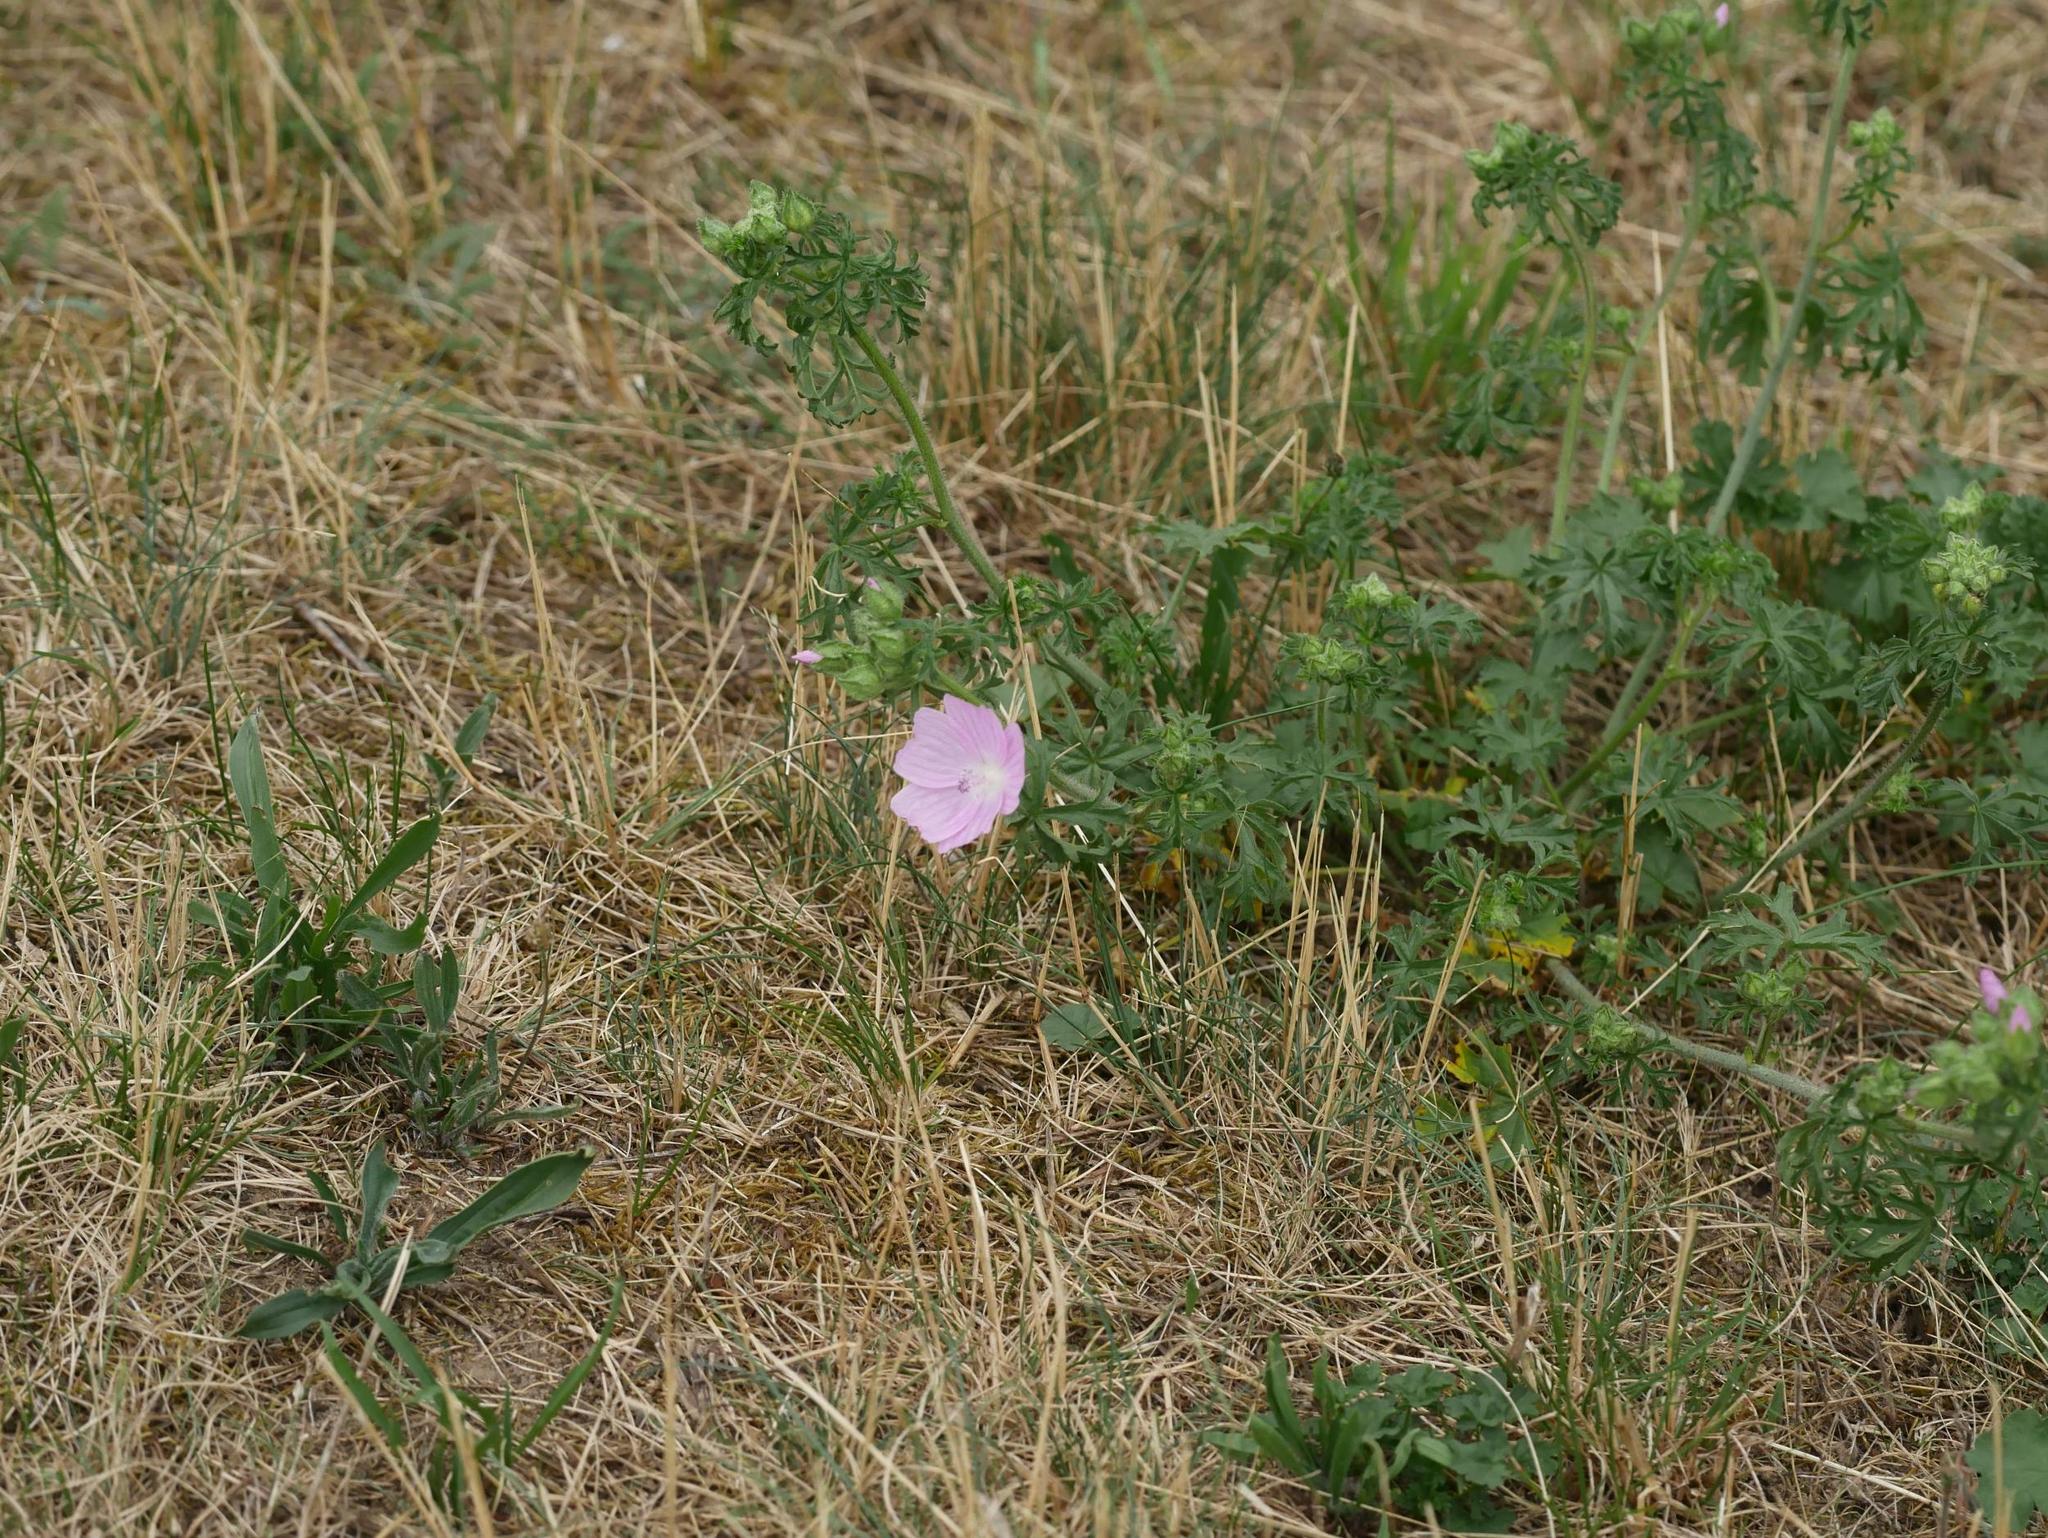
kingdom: Plantae
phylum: Tracheophyta
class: Magnoliopsida
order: Malvales
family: Malvaceae
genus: Malva
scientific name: Malva moschata
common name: Musk mallow
